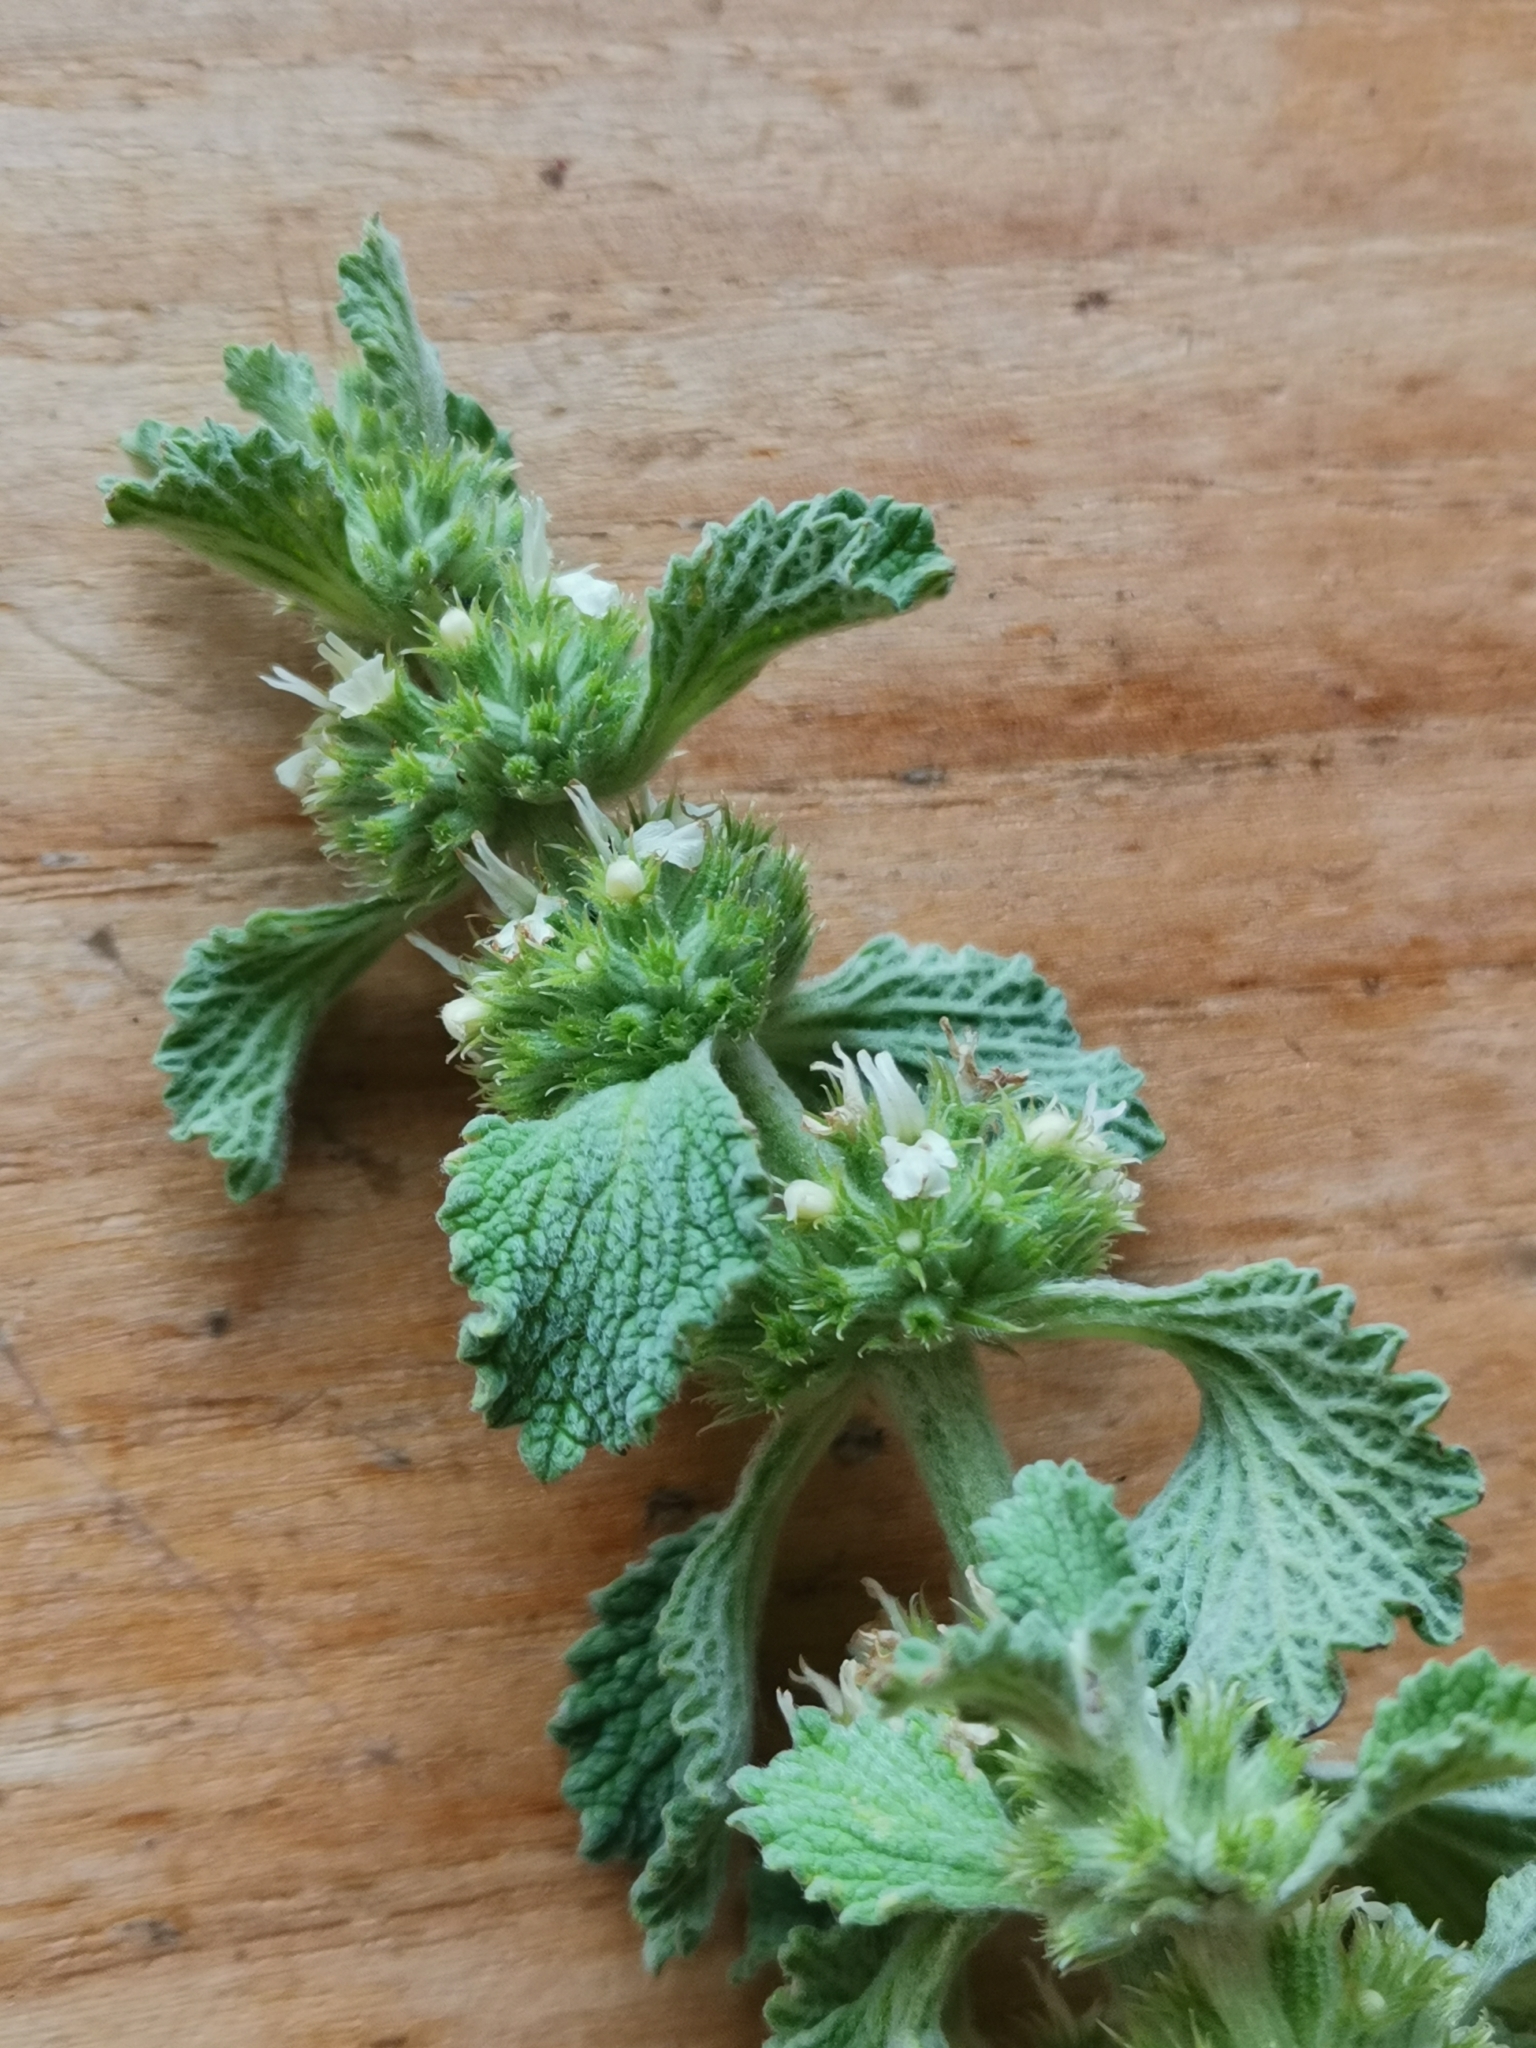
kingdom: Plantae
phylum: Tracheophyta
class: Magnoliopsida
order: Lamiales
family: Lamiaceae
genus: Marrubium
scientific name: Marrubium vulgare
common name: Horehound
